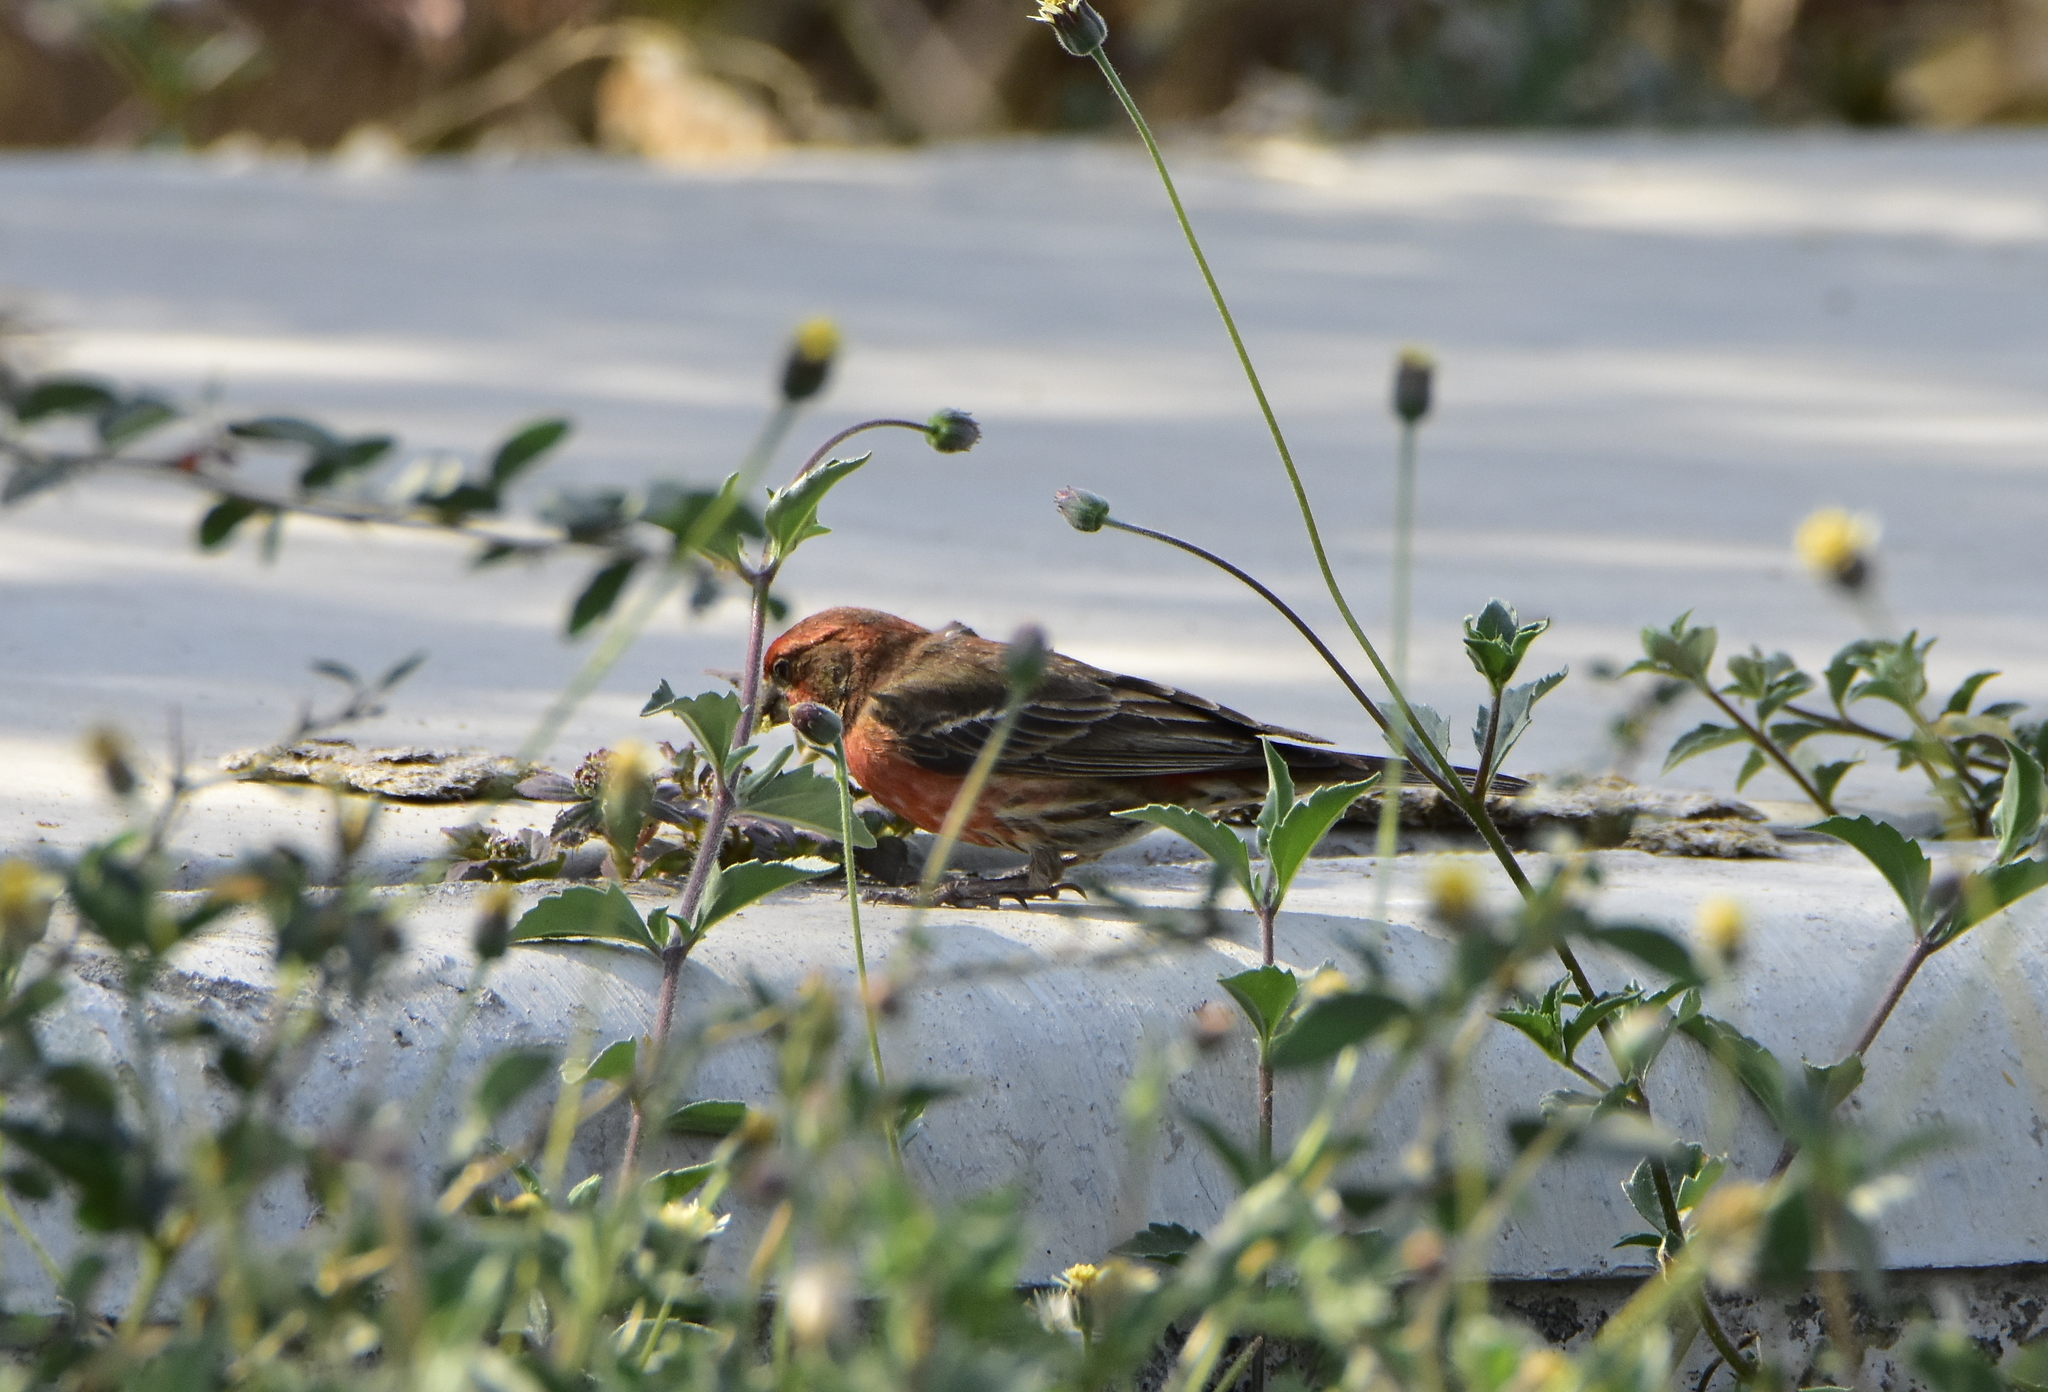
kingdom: Animalia
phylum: Chordata
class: Aves
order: Passeriformes
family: Fringillidae
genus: Haemorhous
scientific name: Haemorhous mexicanus
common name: House finch
